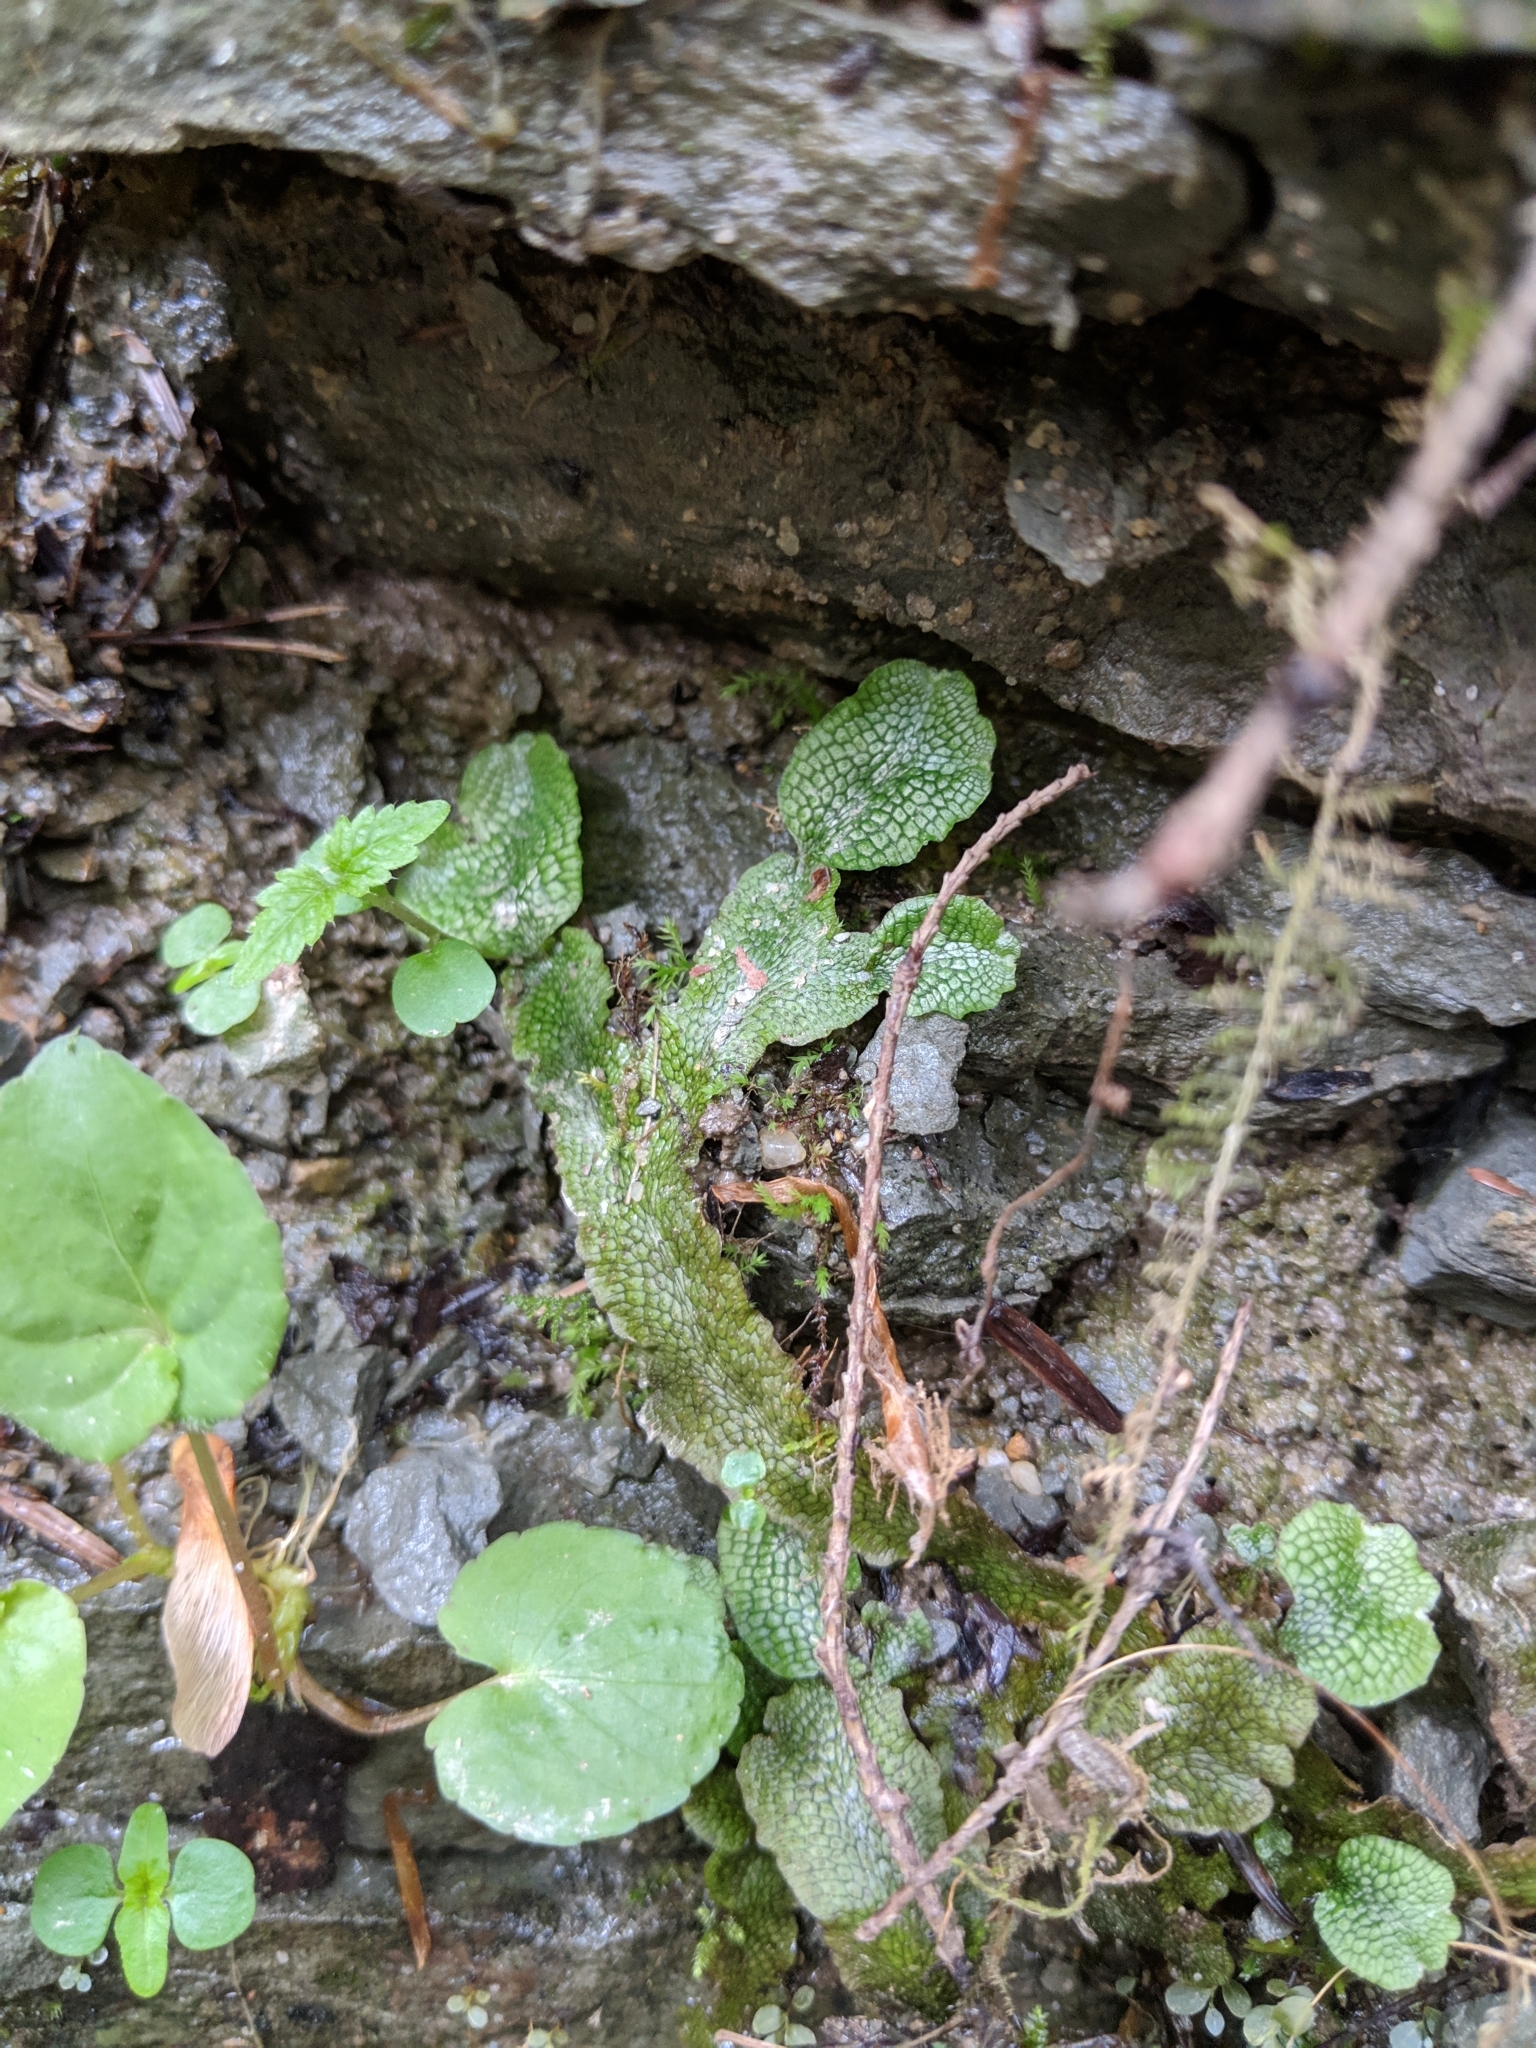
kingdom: Plantae
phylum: Marchantiophyta
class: Marchantiopsida
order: Marchantiales
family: Conocephalaceae
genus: Conocephalum
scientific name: Conocephalum salebrosum
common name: Cat-tongue liverwort
